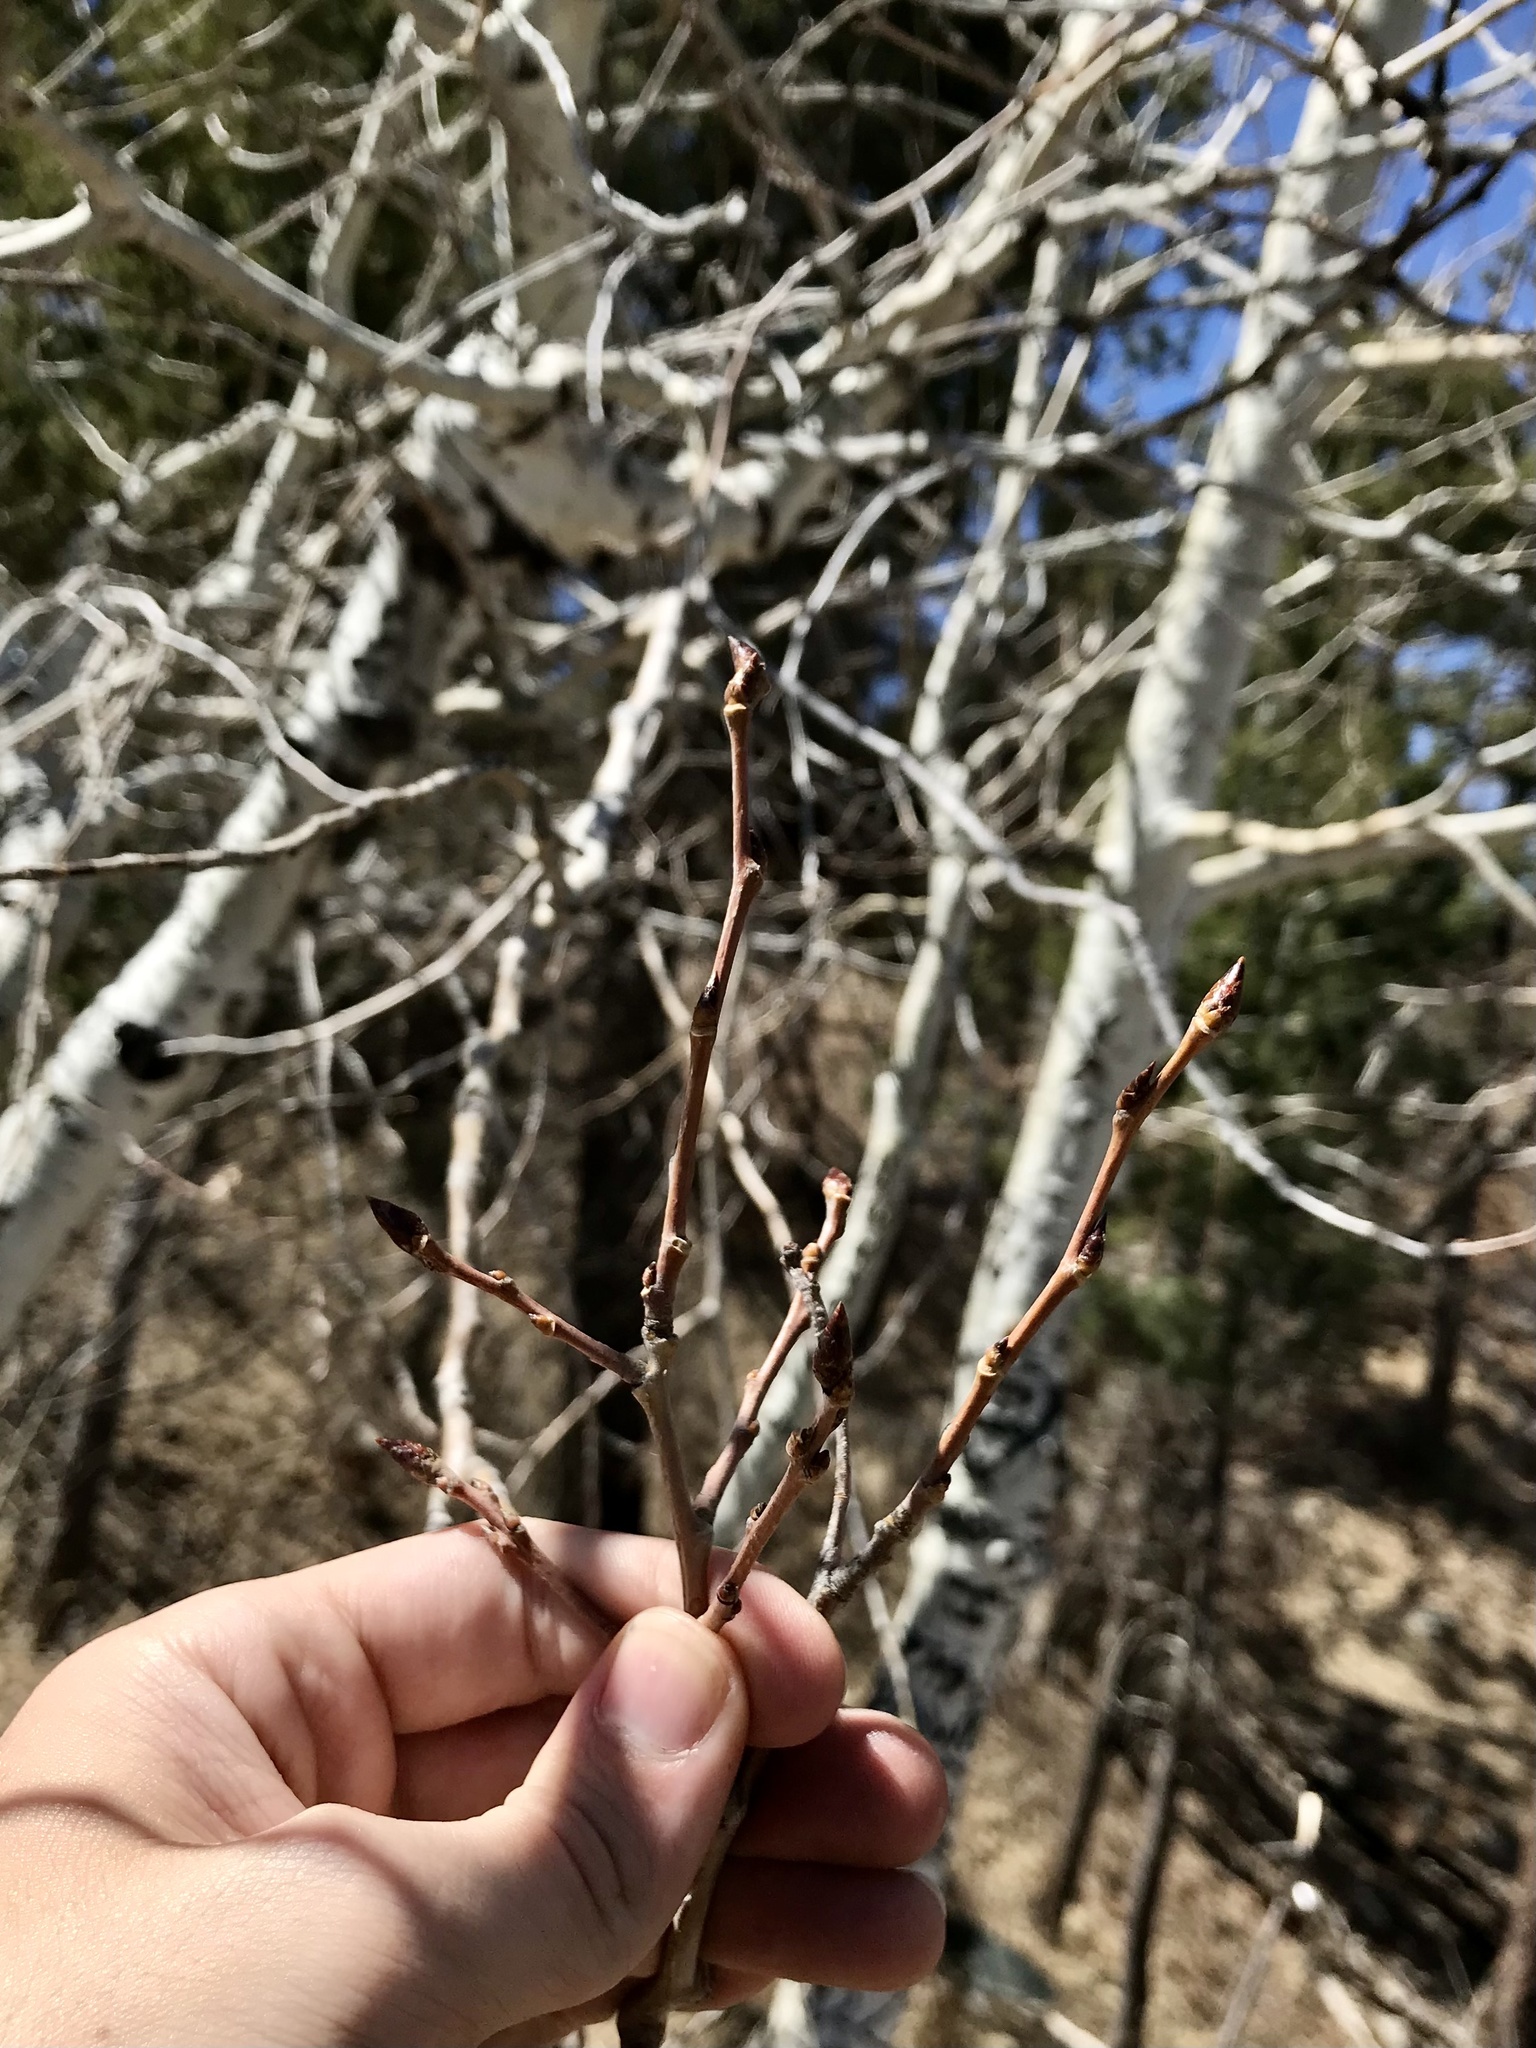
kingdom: Plantae
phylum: Tracheophyta
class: Magnoliopsida
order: Malpighiales
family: Salicaceae
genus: Populus
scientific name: Populus tremuloides
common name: Quaking aspen
